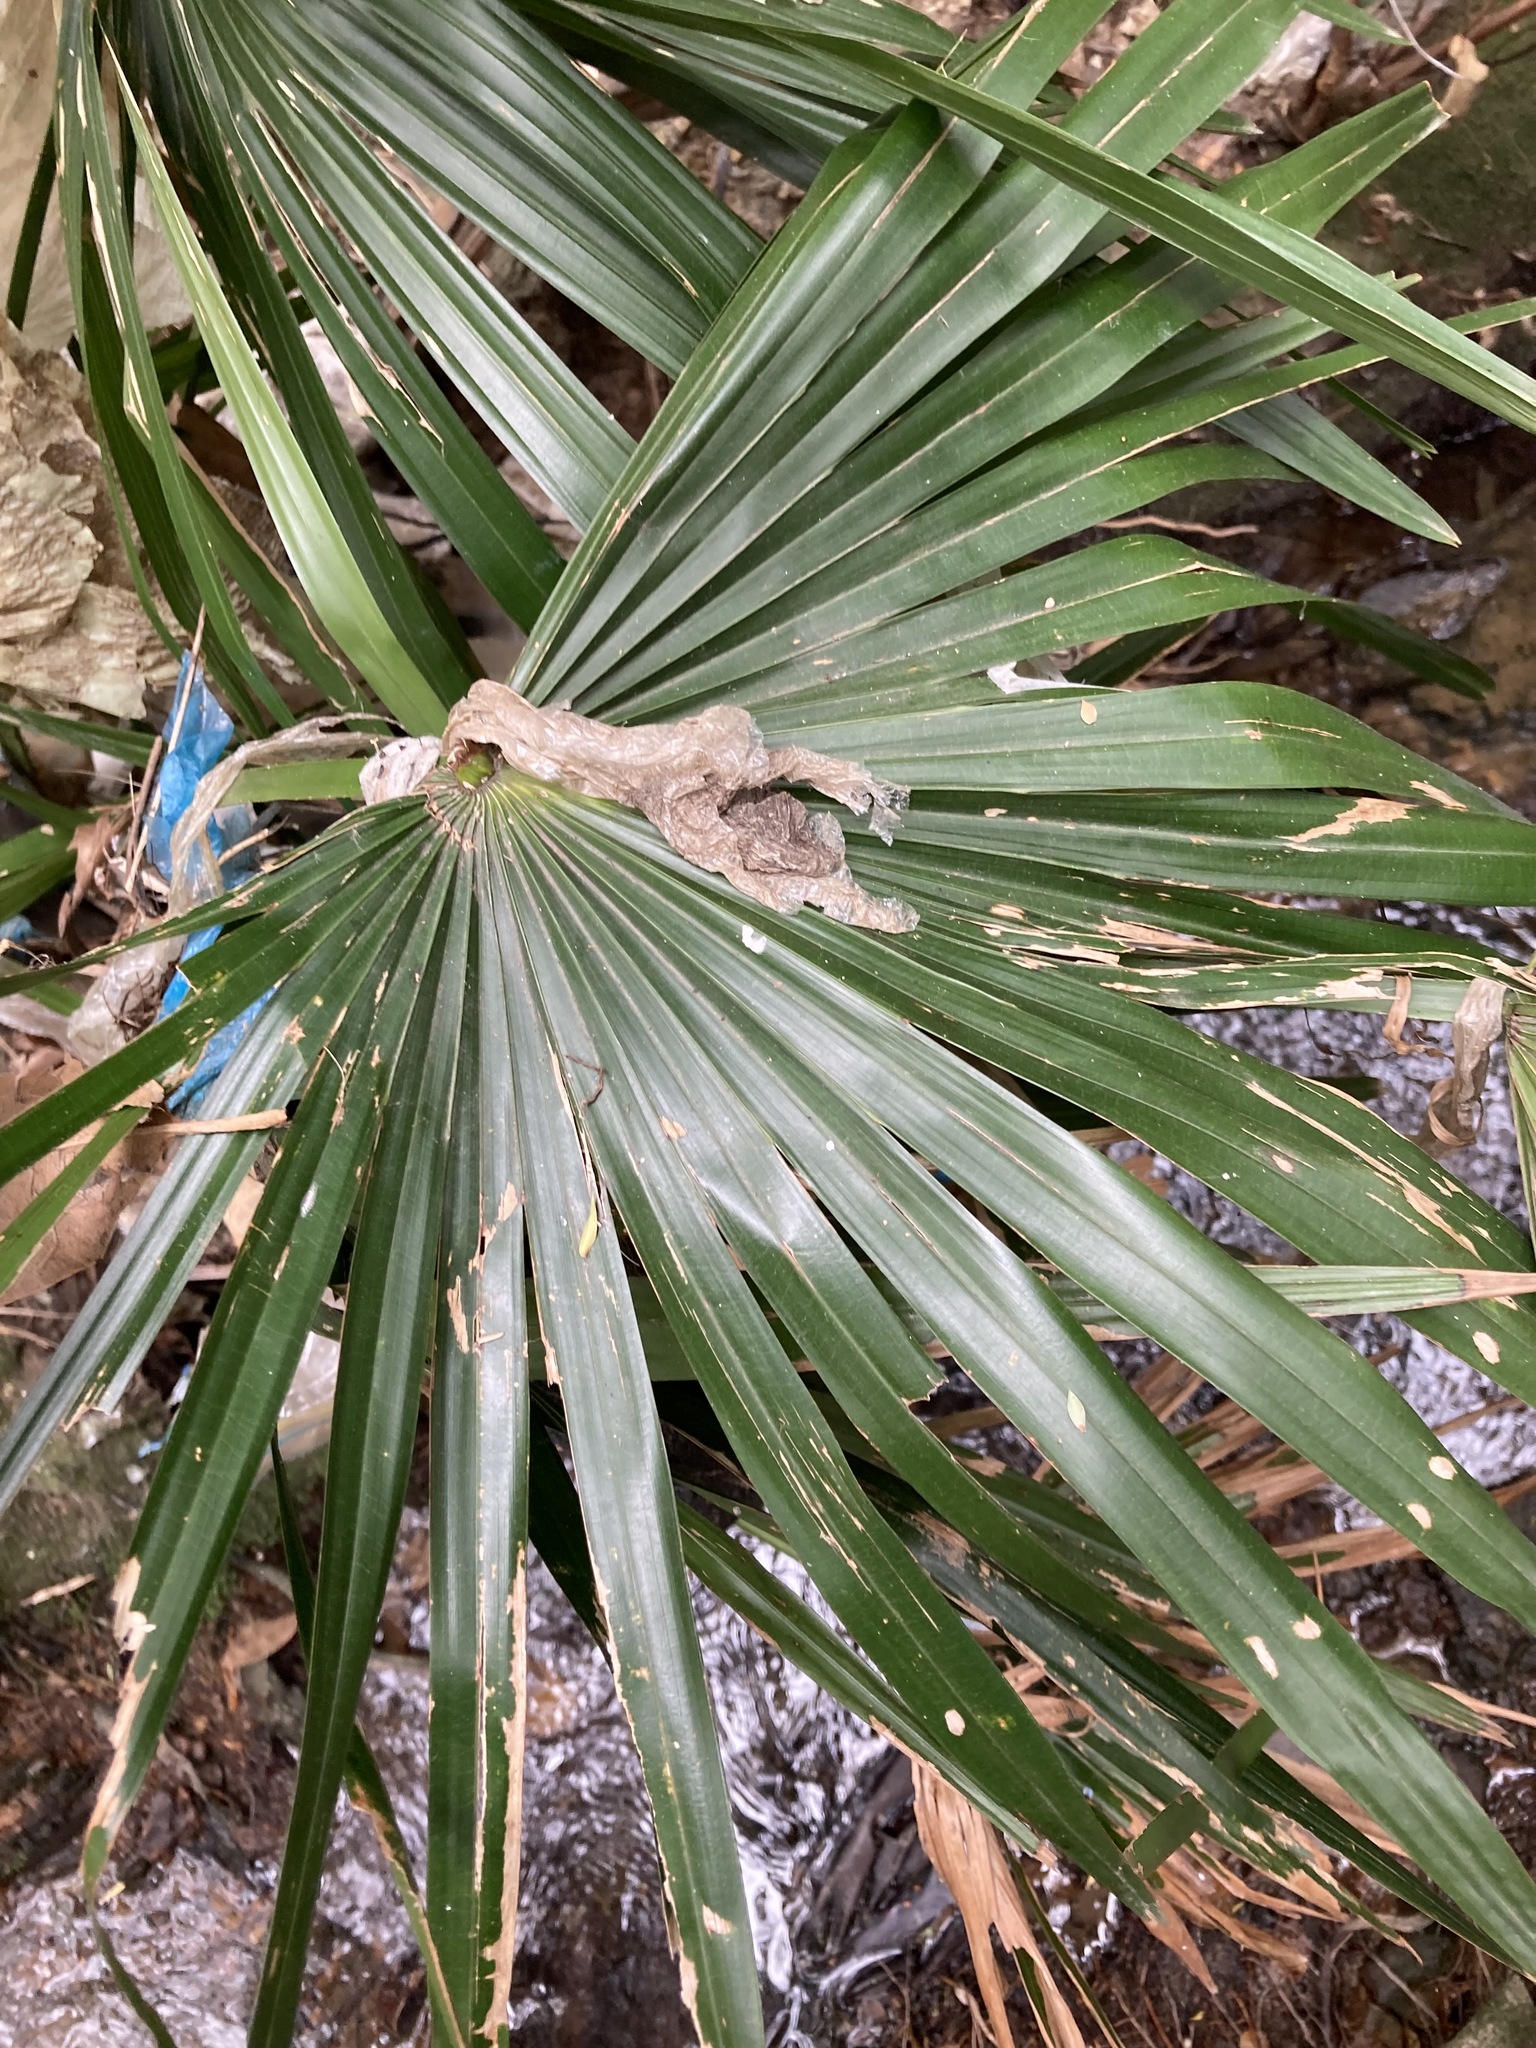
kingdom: Plantae
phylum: Tracheophyta
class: Liliopsida
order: Arecales
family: Arecaceae
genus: Livistona
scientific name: Livistona australis
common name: Cabbage fan palm
